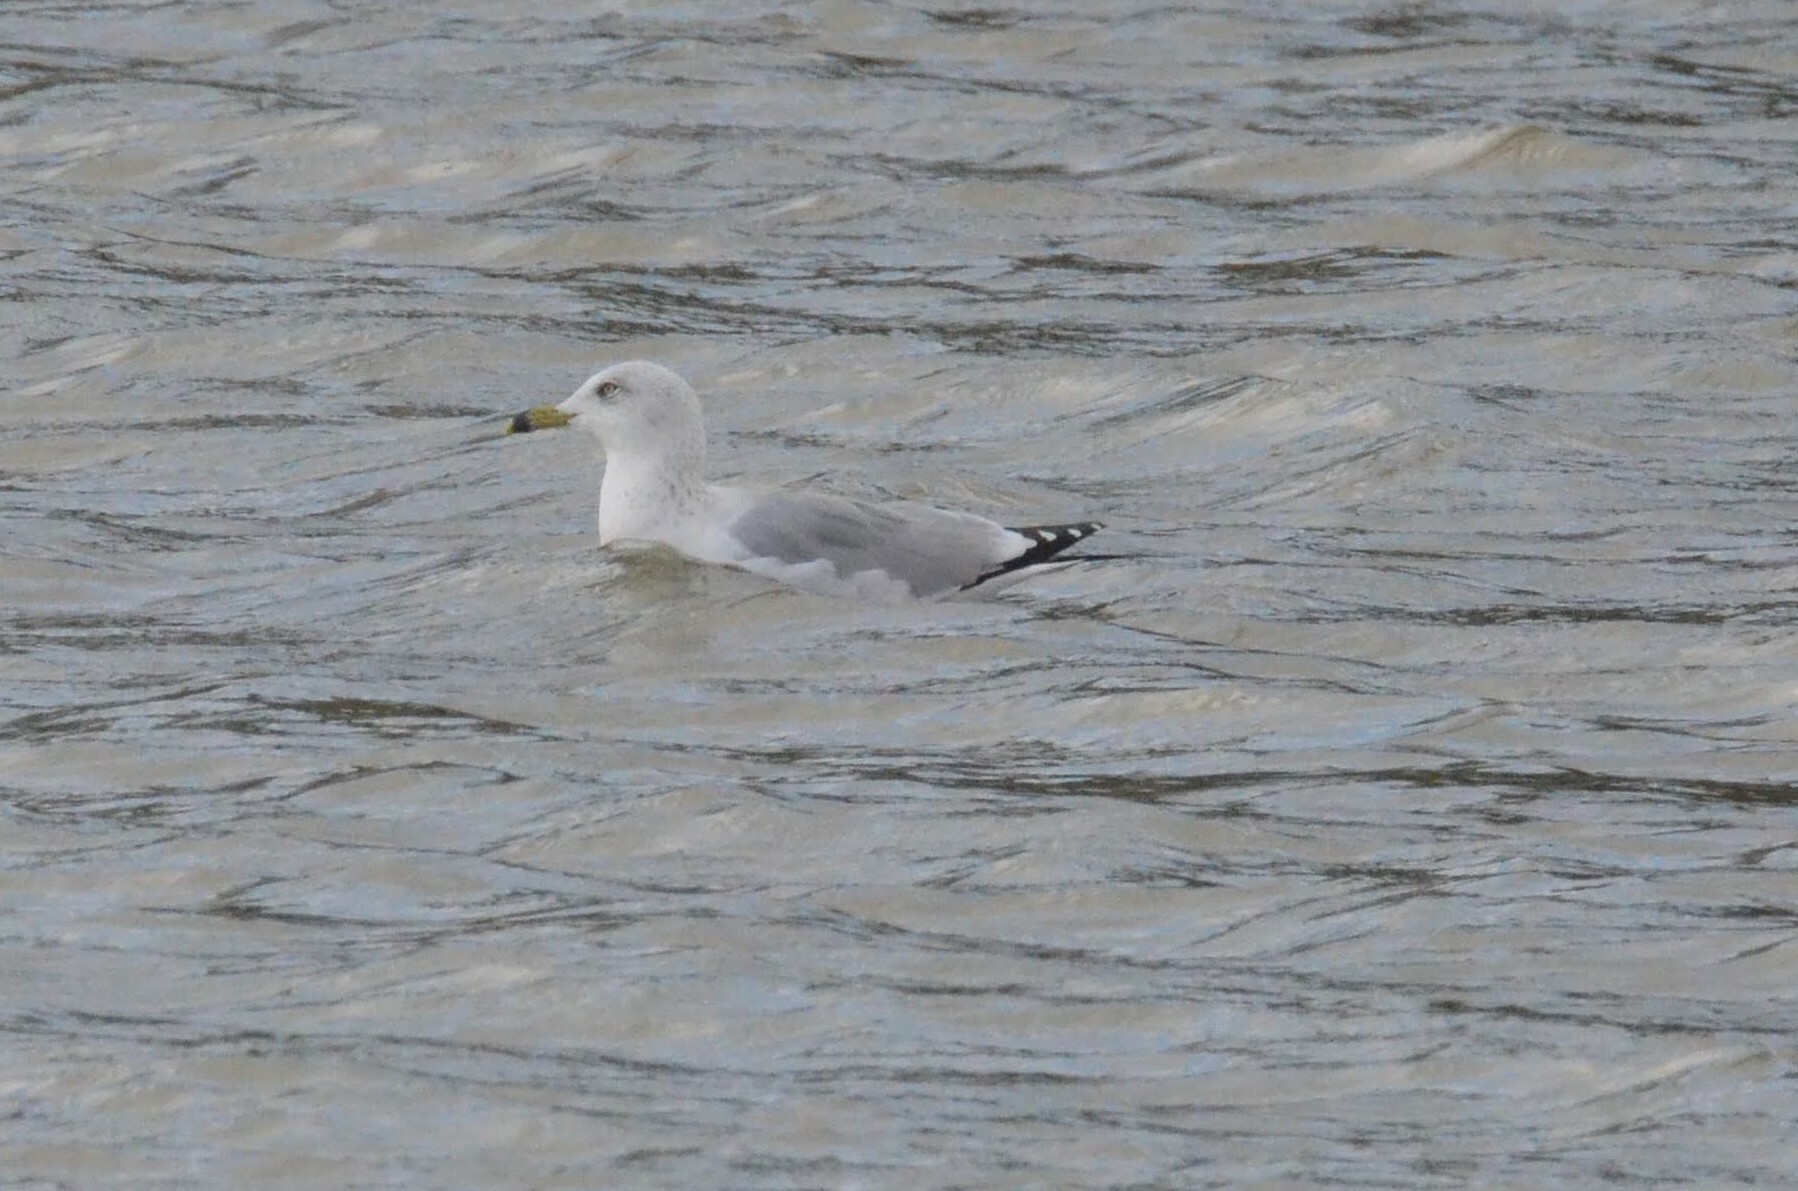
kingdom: Animalia
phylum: Chordata
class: Aves
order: Charadriiformes
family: Laridae
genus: Larus
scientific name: Larus delawarensis
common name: Ring-billed gull
